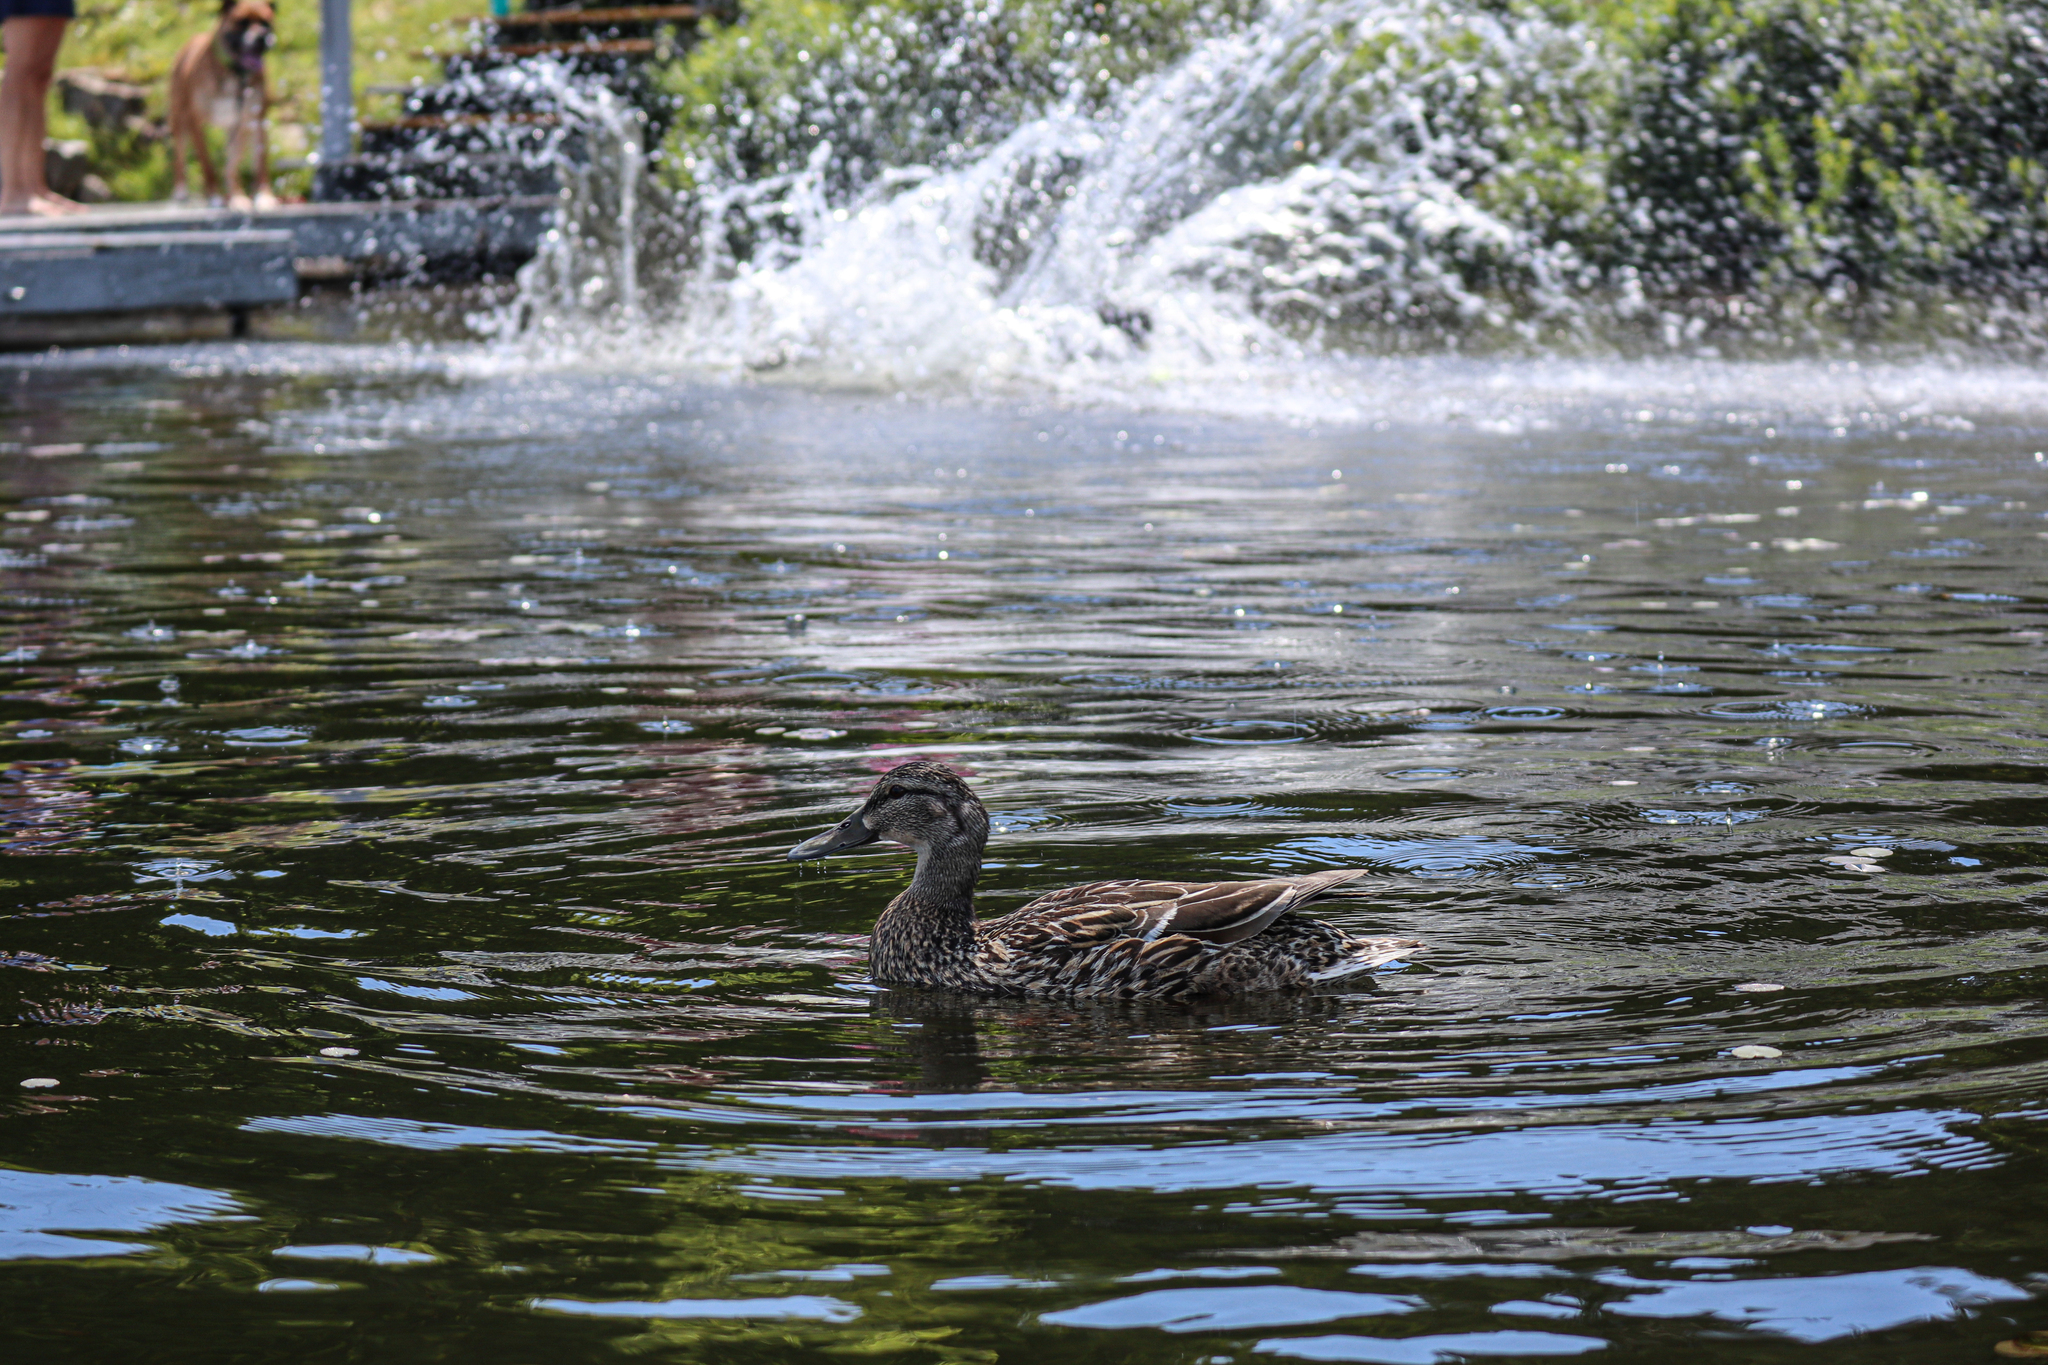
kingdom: Animalia
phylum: Chordata
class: Aves
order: Anseriformes
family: Anatidae
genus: Anas
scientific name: Anas platyrhynchos
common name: Mallard
